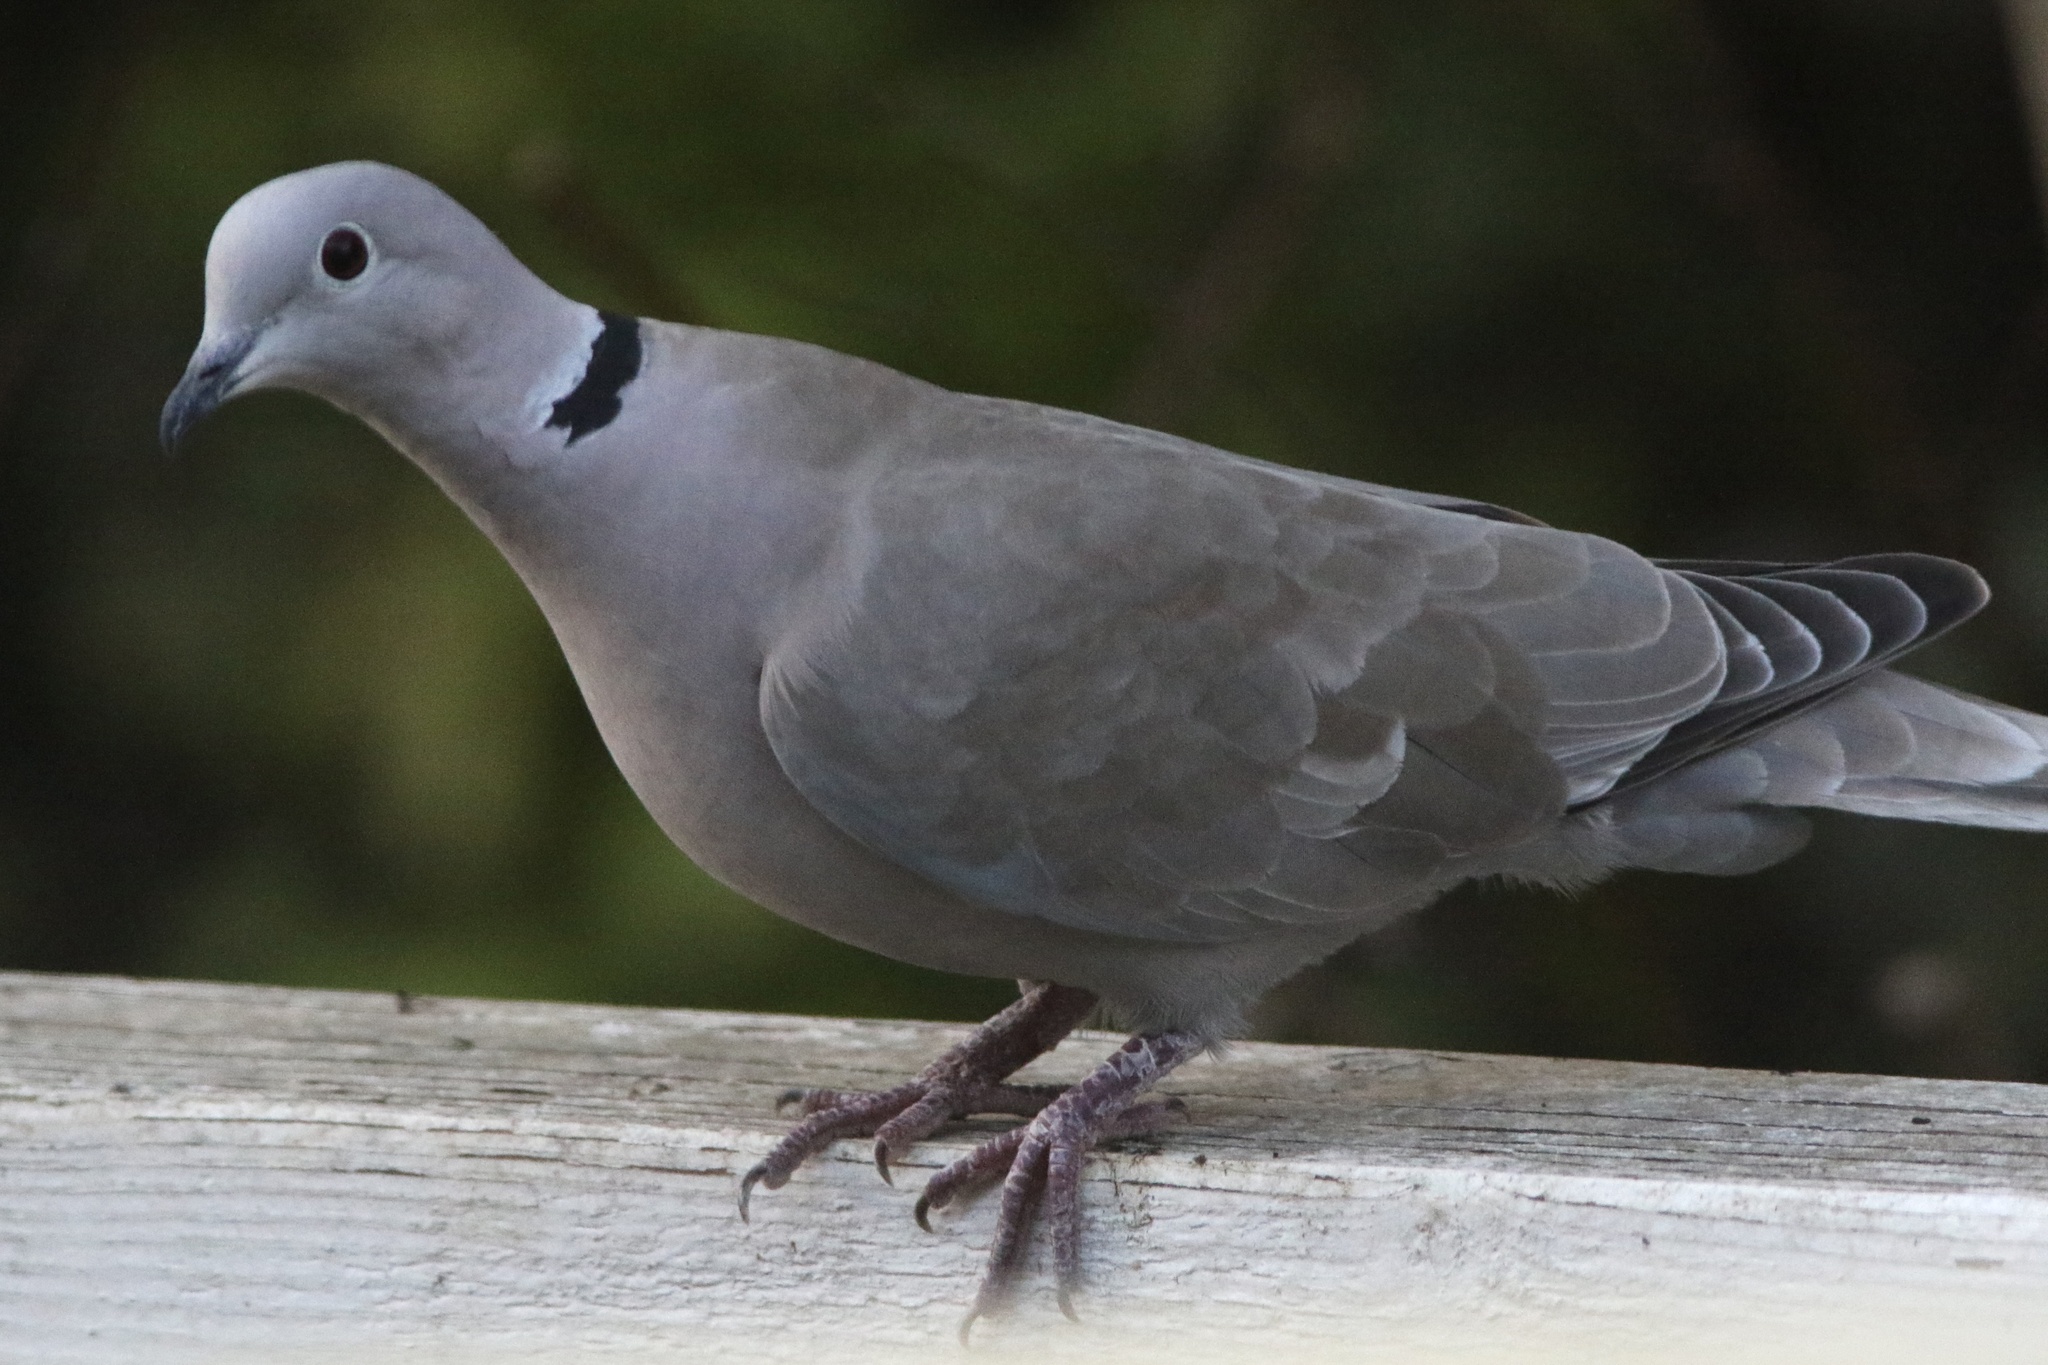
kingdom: Animalia
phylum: Chordata
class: Aves
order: Columbiformes
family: Columbidae
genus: Streptopelia
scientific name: Streptopelia decaocto
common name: Eurasian collared dove
